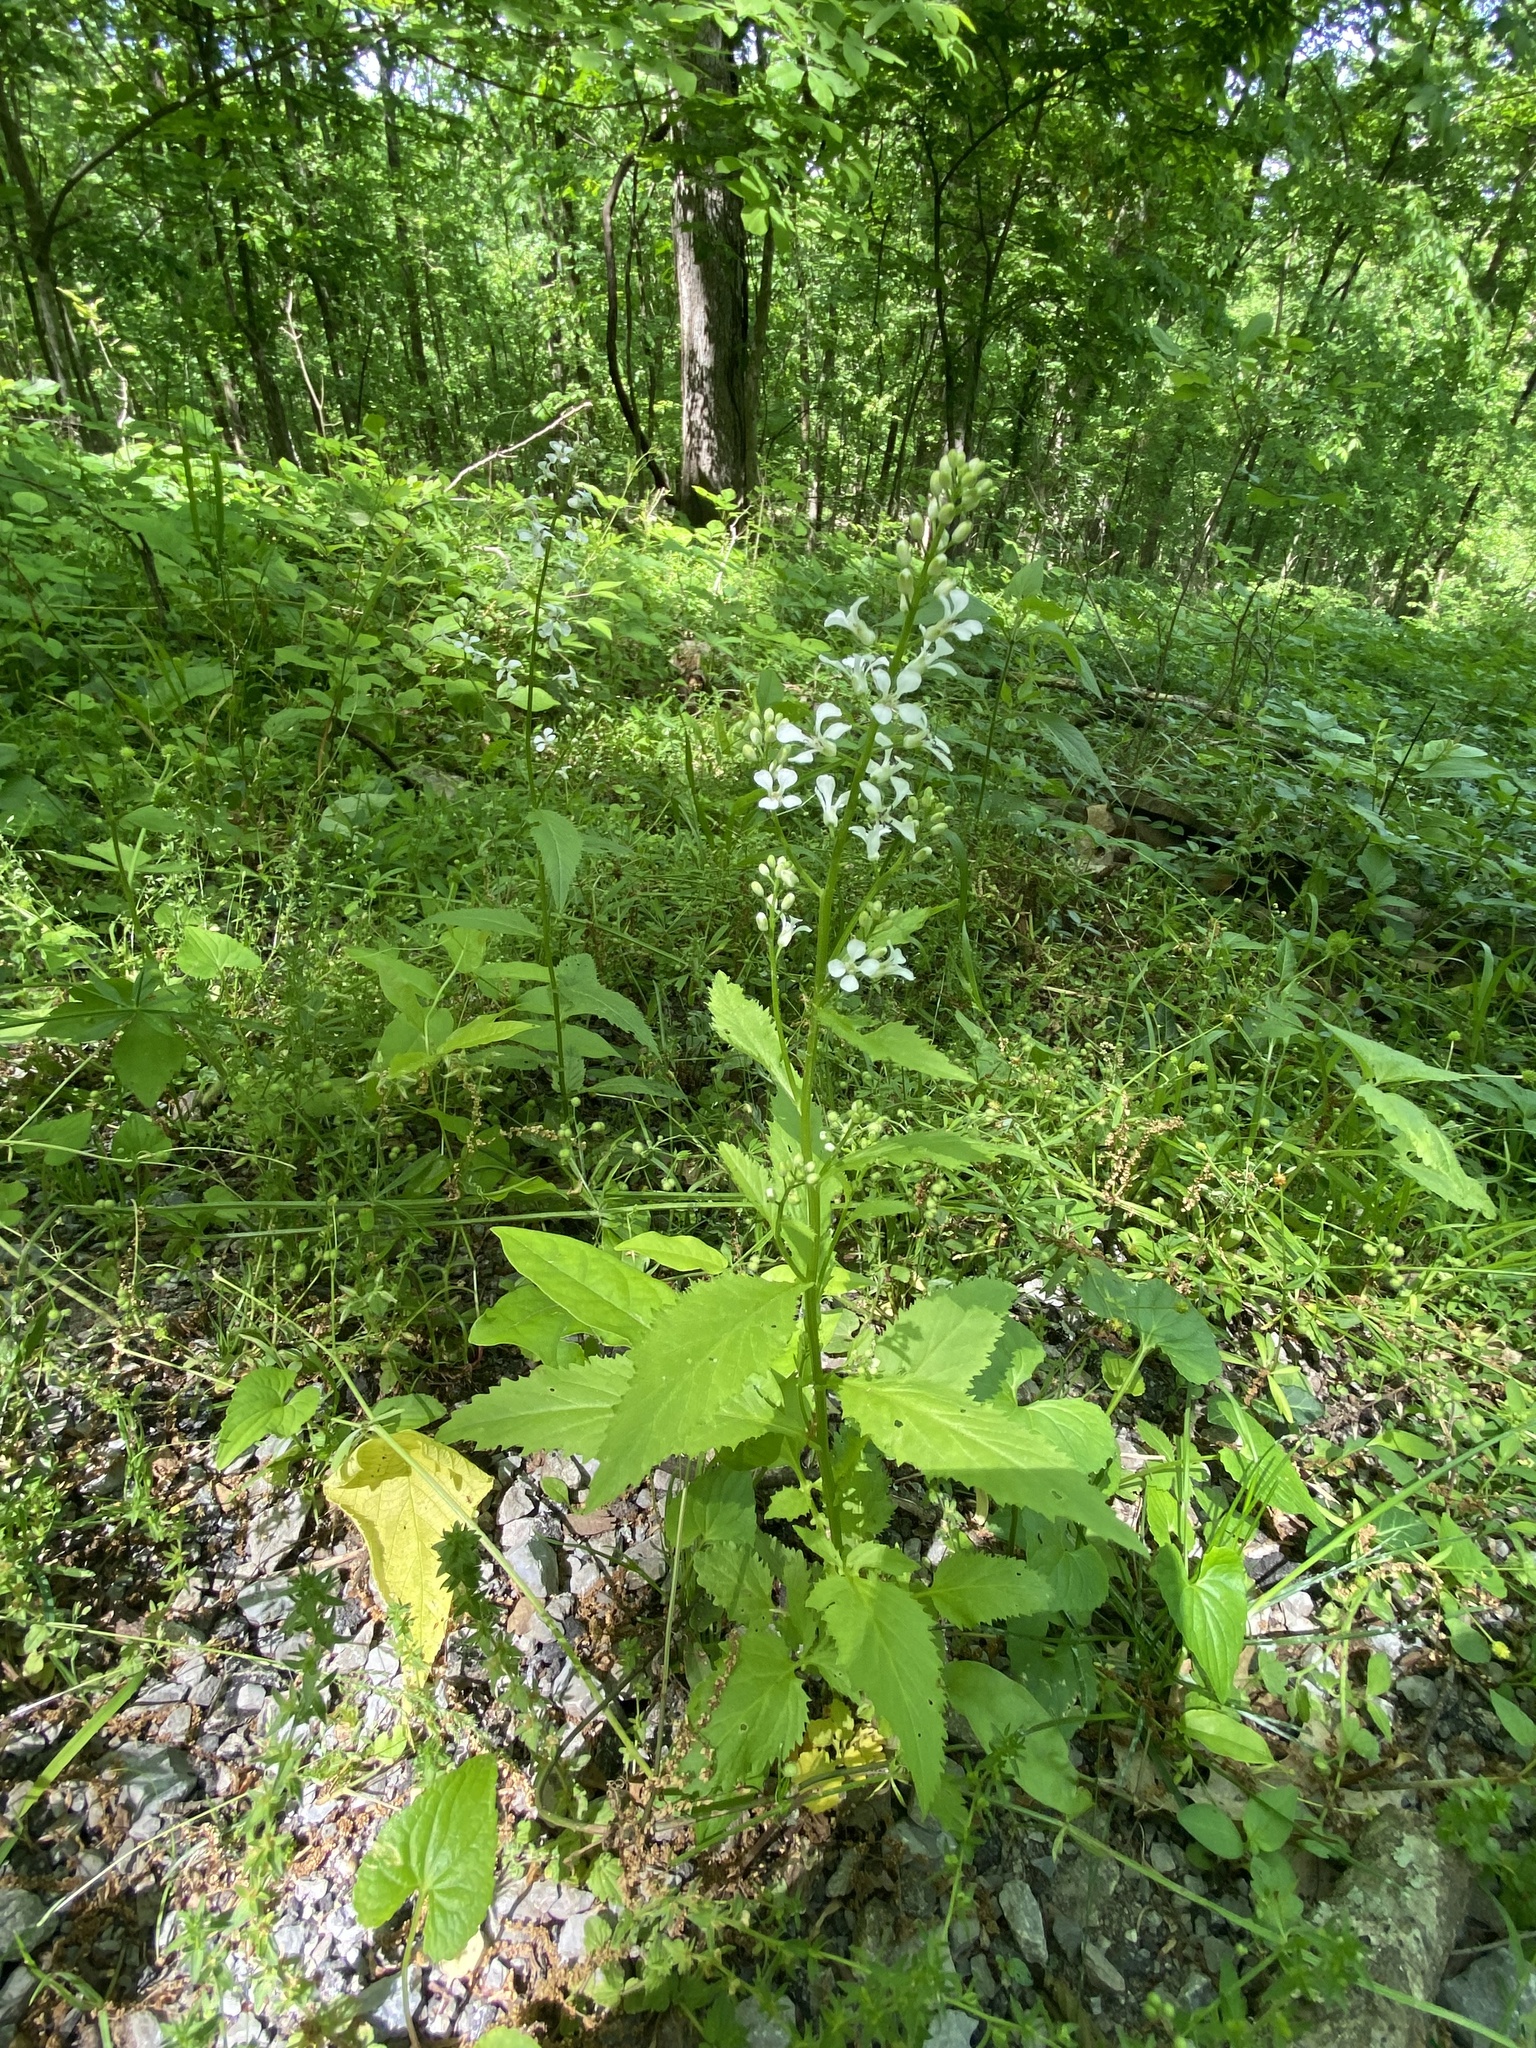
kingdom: Plantae
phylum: Tracheophyta
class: Magnoliopsida
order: Brassicales
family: Brassicaceae
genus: Iodanthus
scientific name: Iodanthus pinnatifidus
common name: Violet rocket
